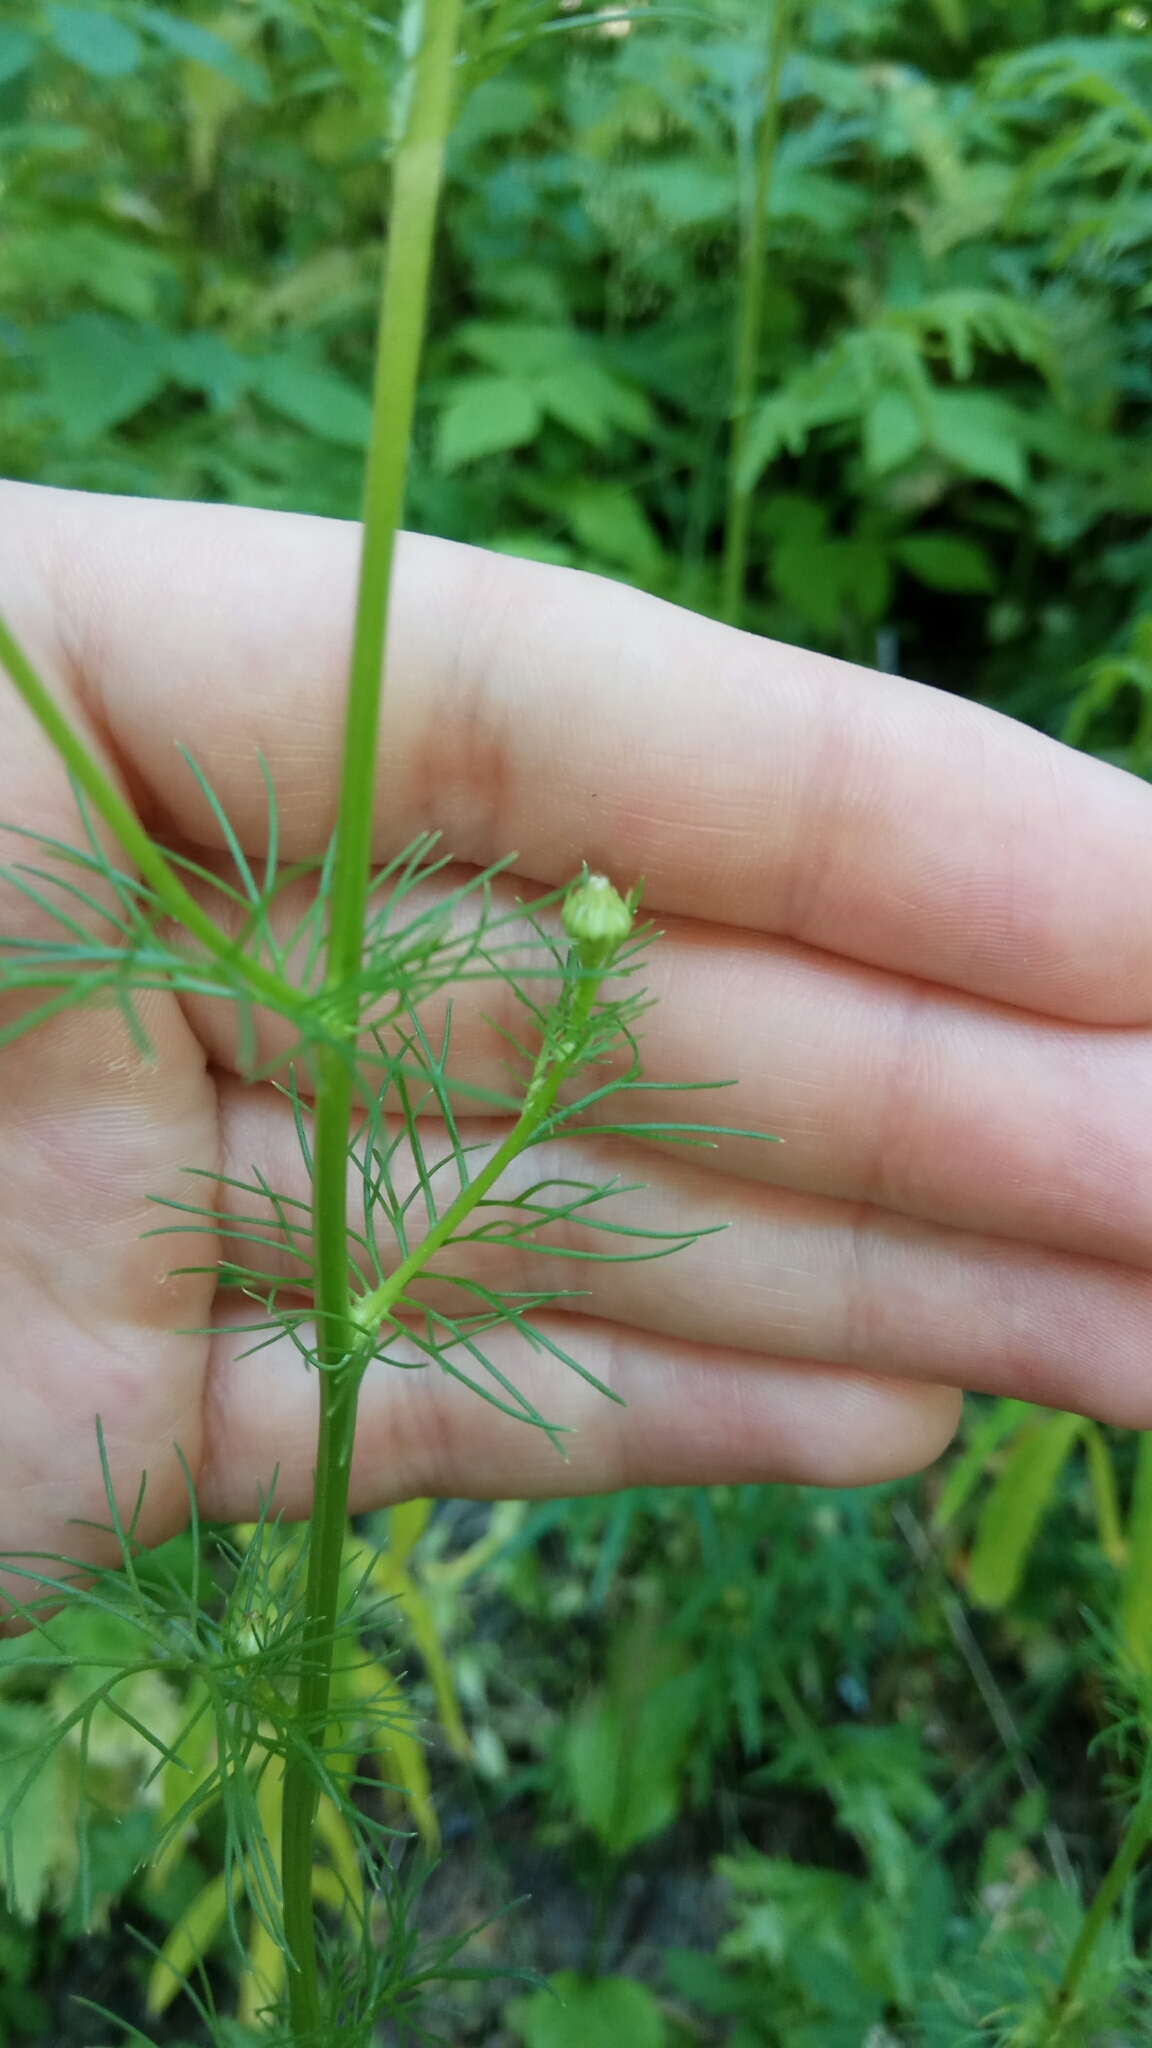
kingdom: Plantae
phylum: Tracheophyta
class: Magnoliopsida
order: Asterales
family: Asteraceae
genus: Tripleurospermum
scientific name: Tripleurospermum inodorum
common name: Scentless mayweed
